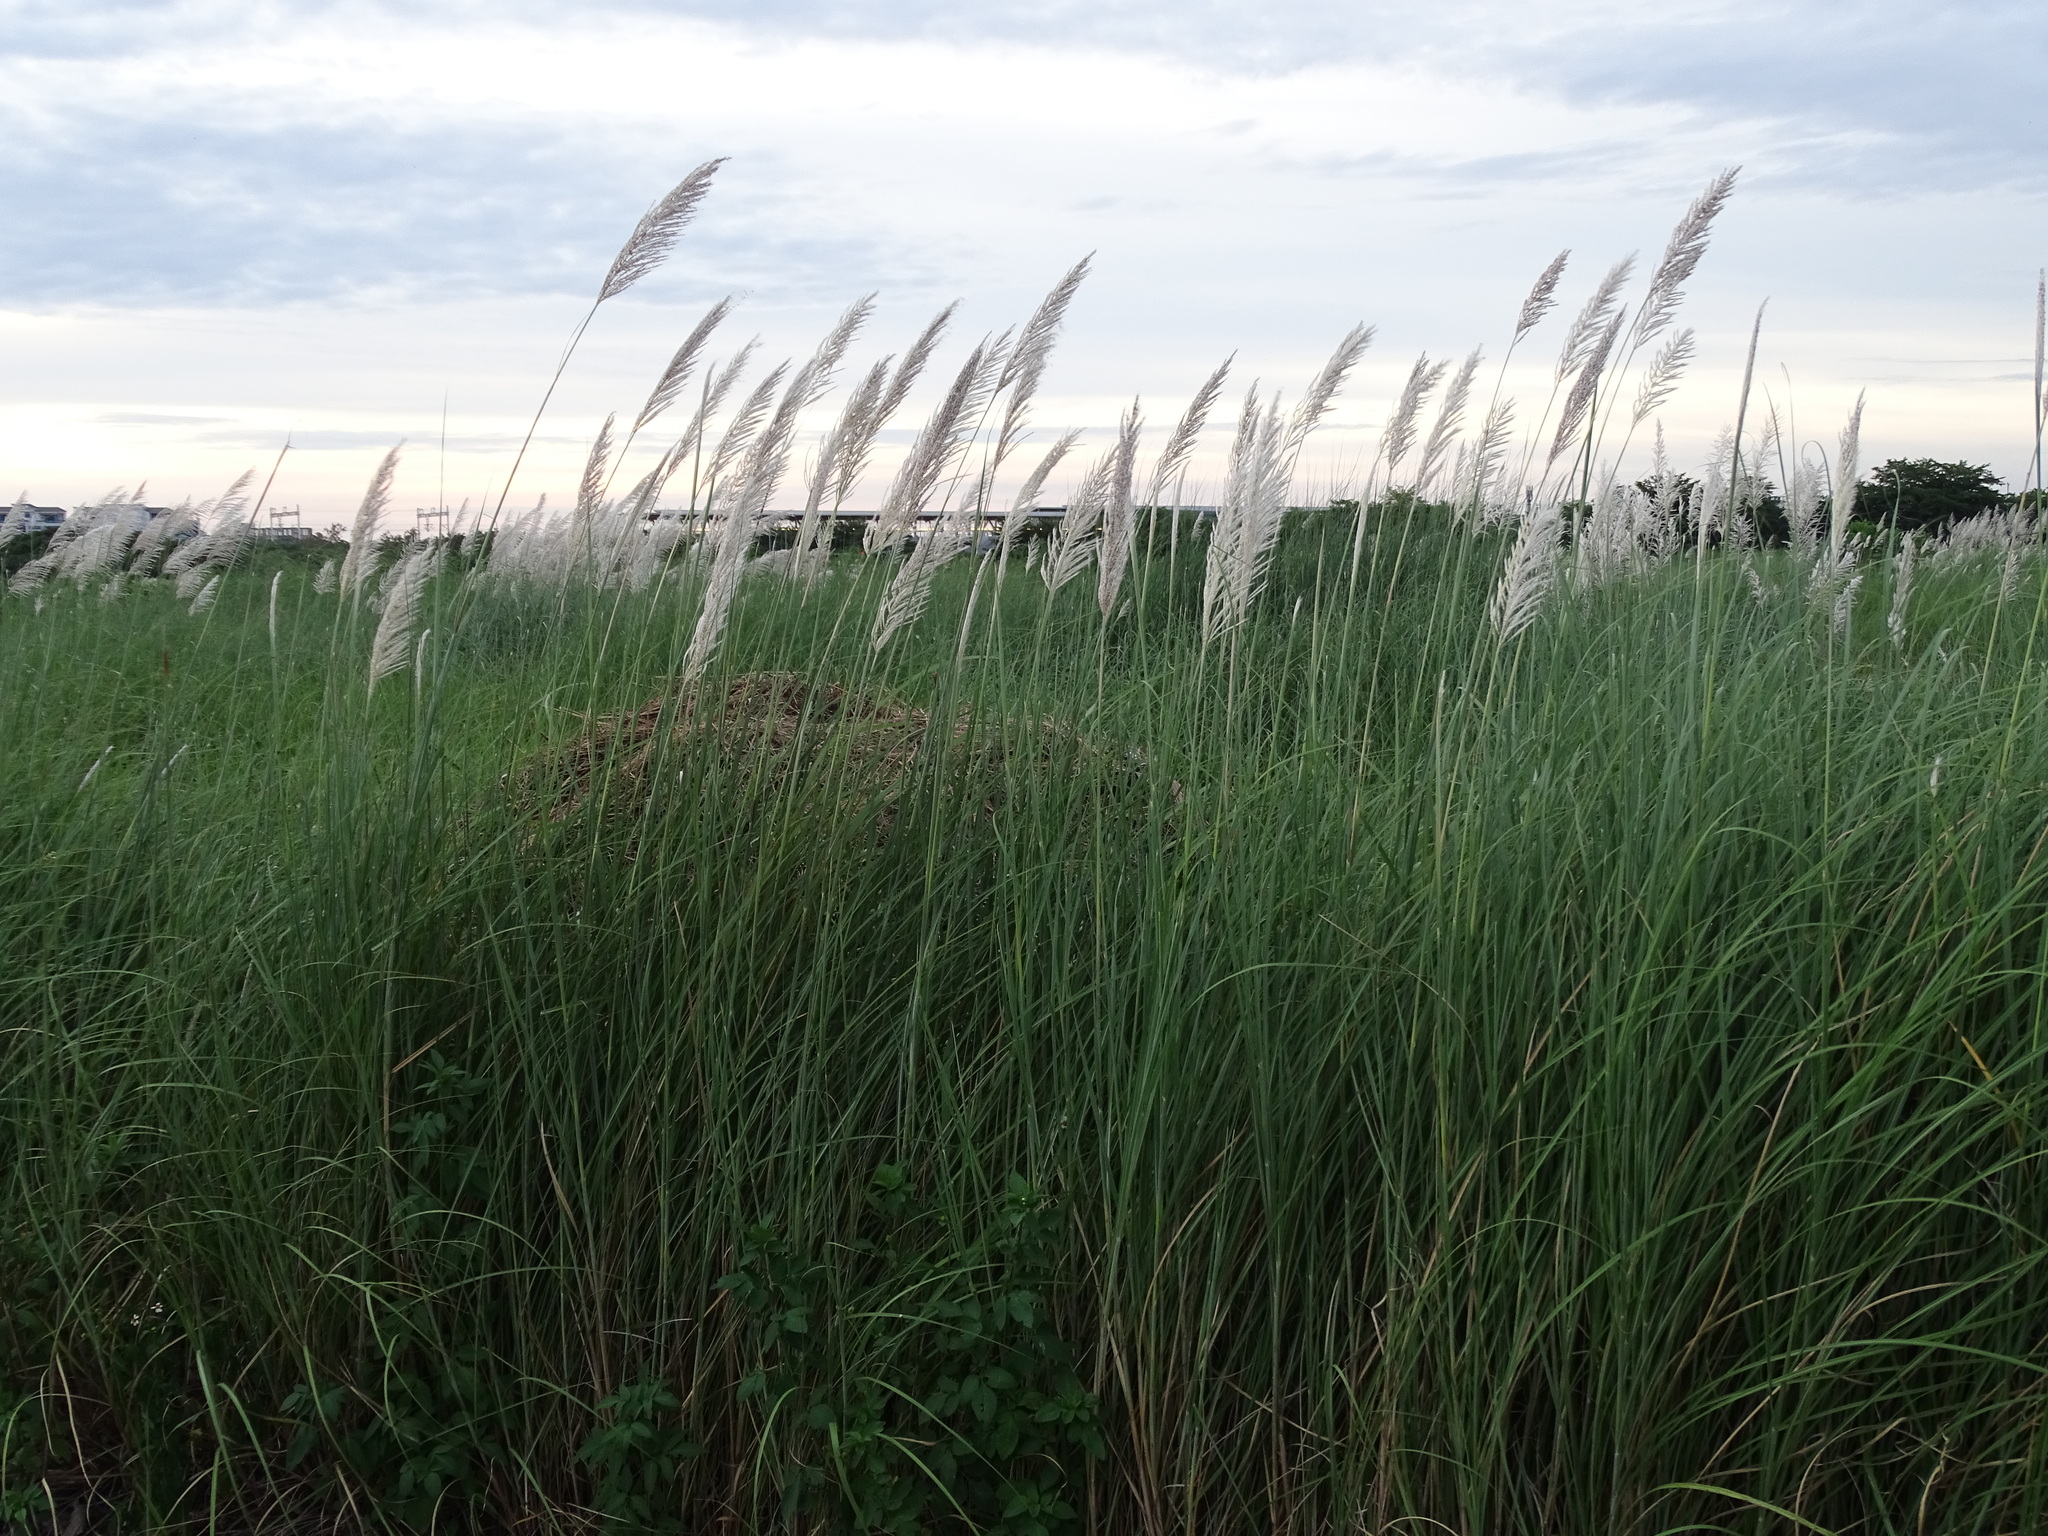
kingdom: Plantae
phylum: Tracheophyta
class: Liliopsida
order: Poales
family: Poaceae
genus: Saccharum
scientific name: Saccharum spontaneum
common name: Wild sugarcane
